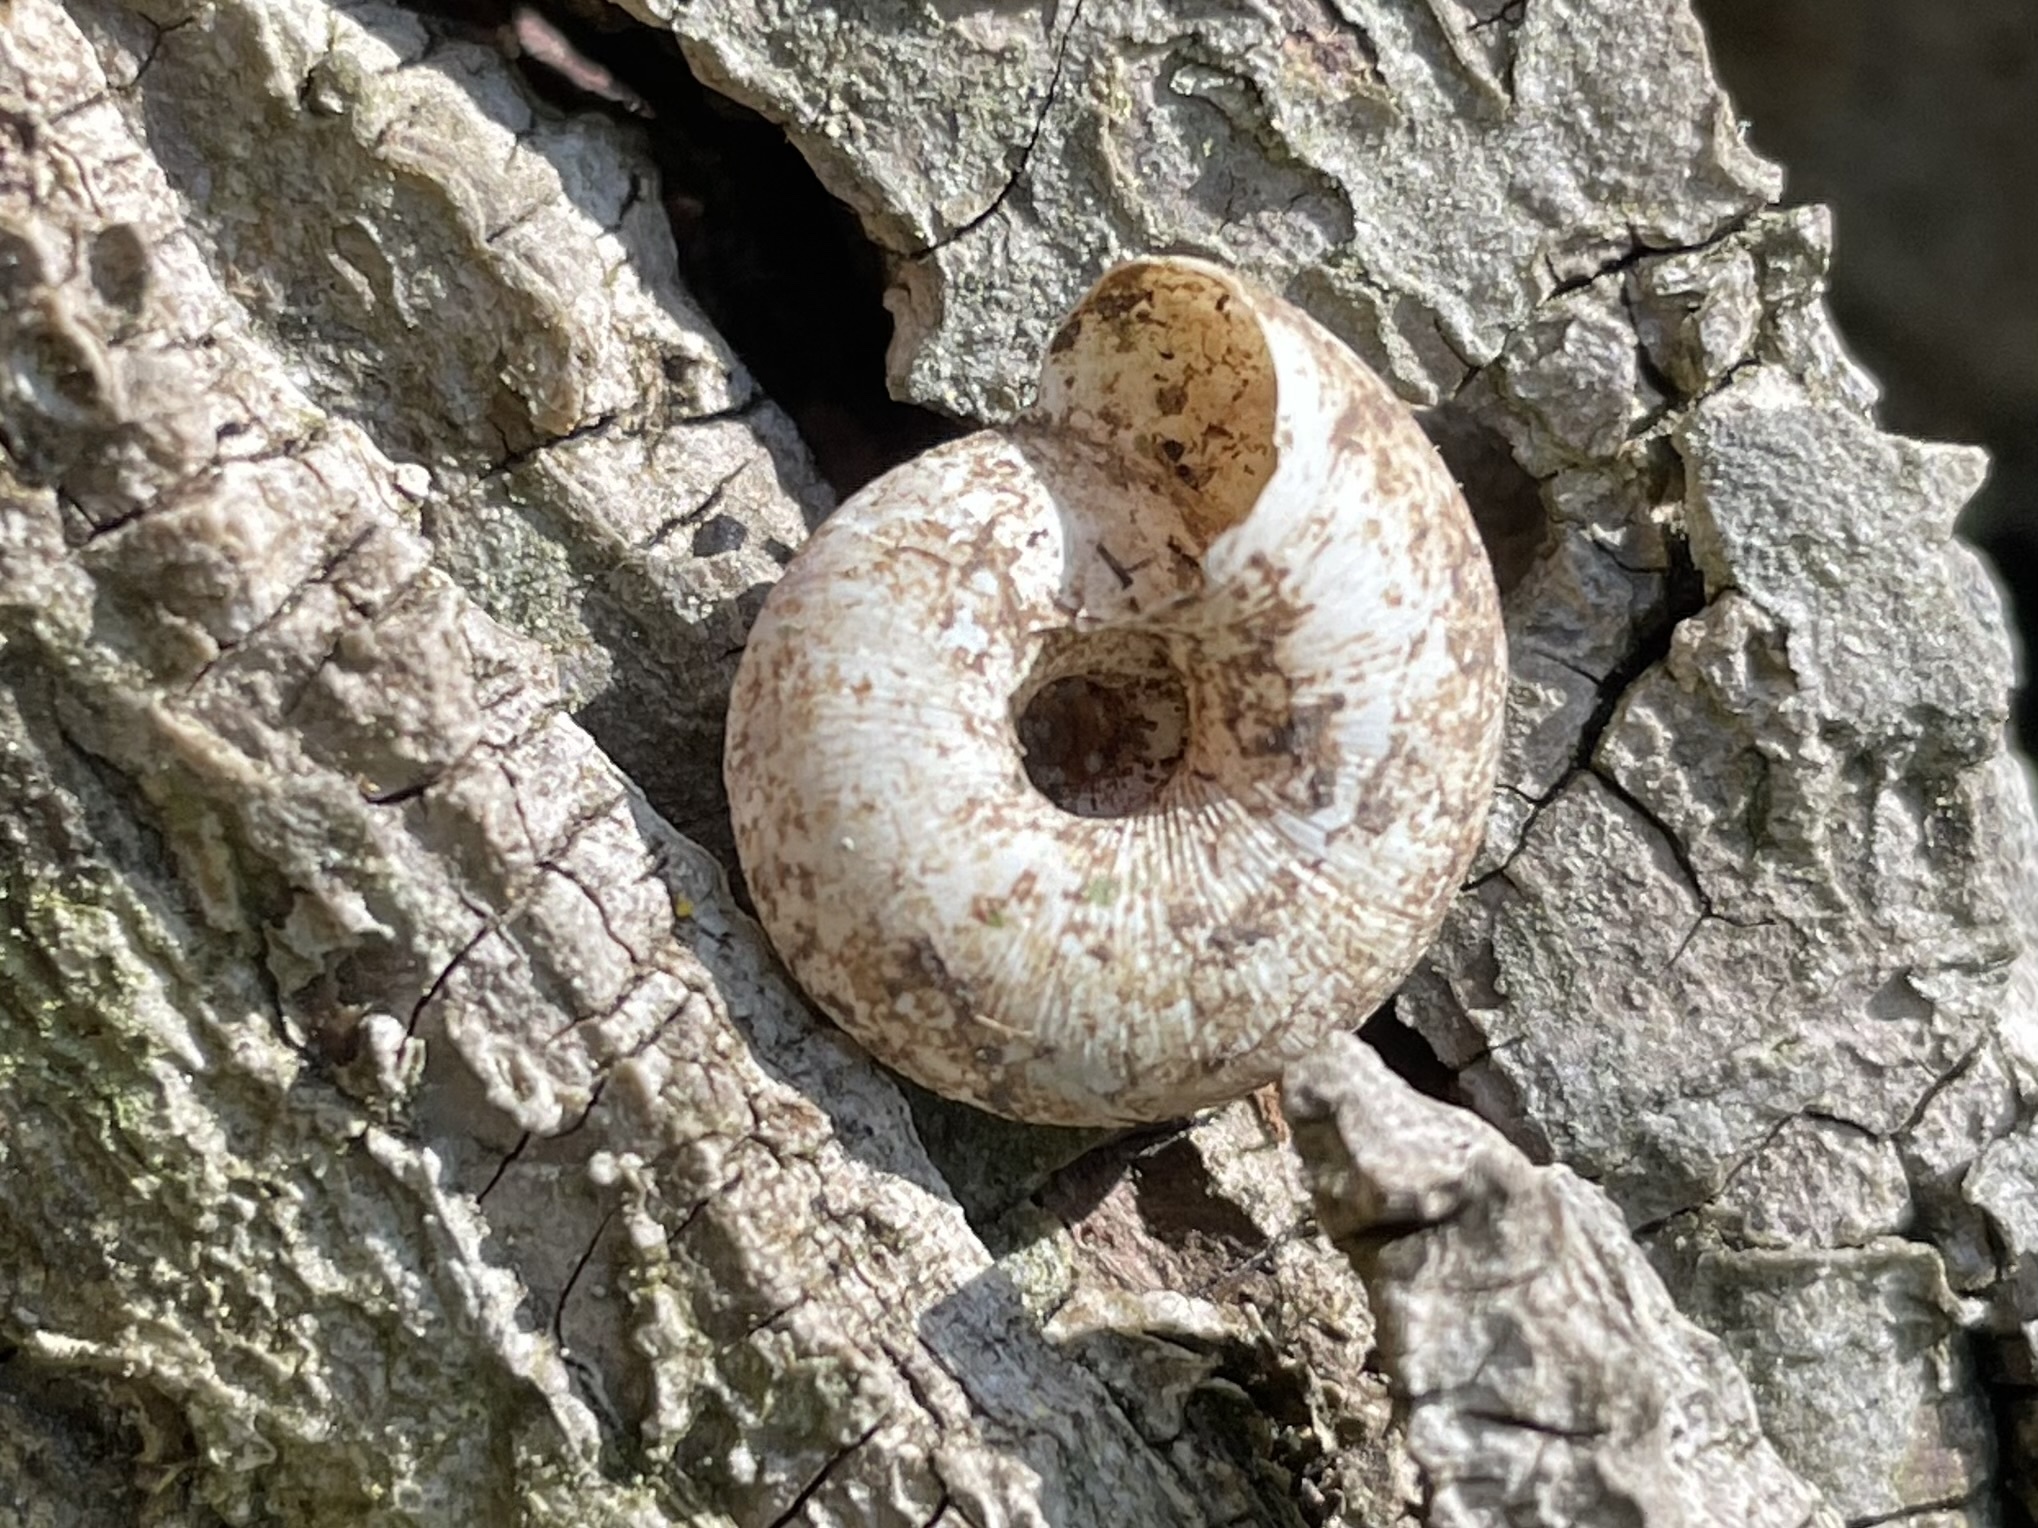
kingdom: Animalia
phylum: Mollusca
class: Gastropoda
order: Stylommatophora
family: Discidae
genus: Anguispira
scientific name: Anguispira alternata
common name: Flamed tigersnail
